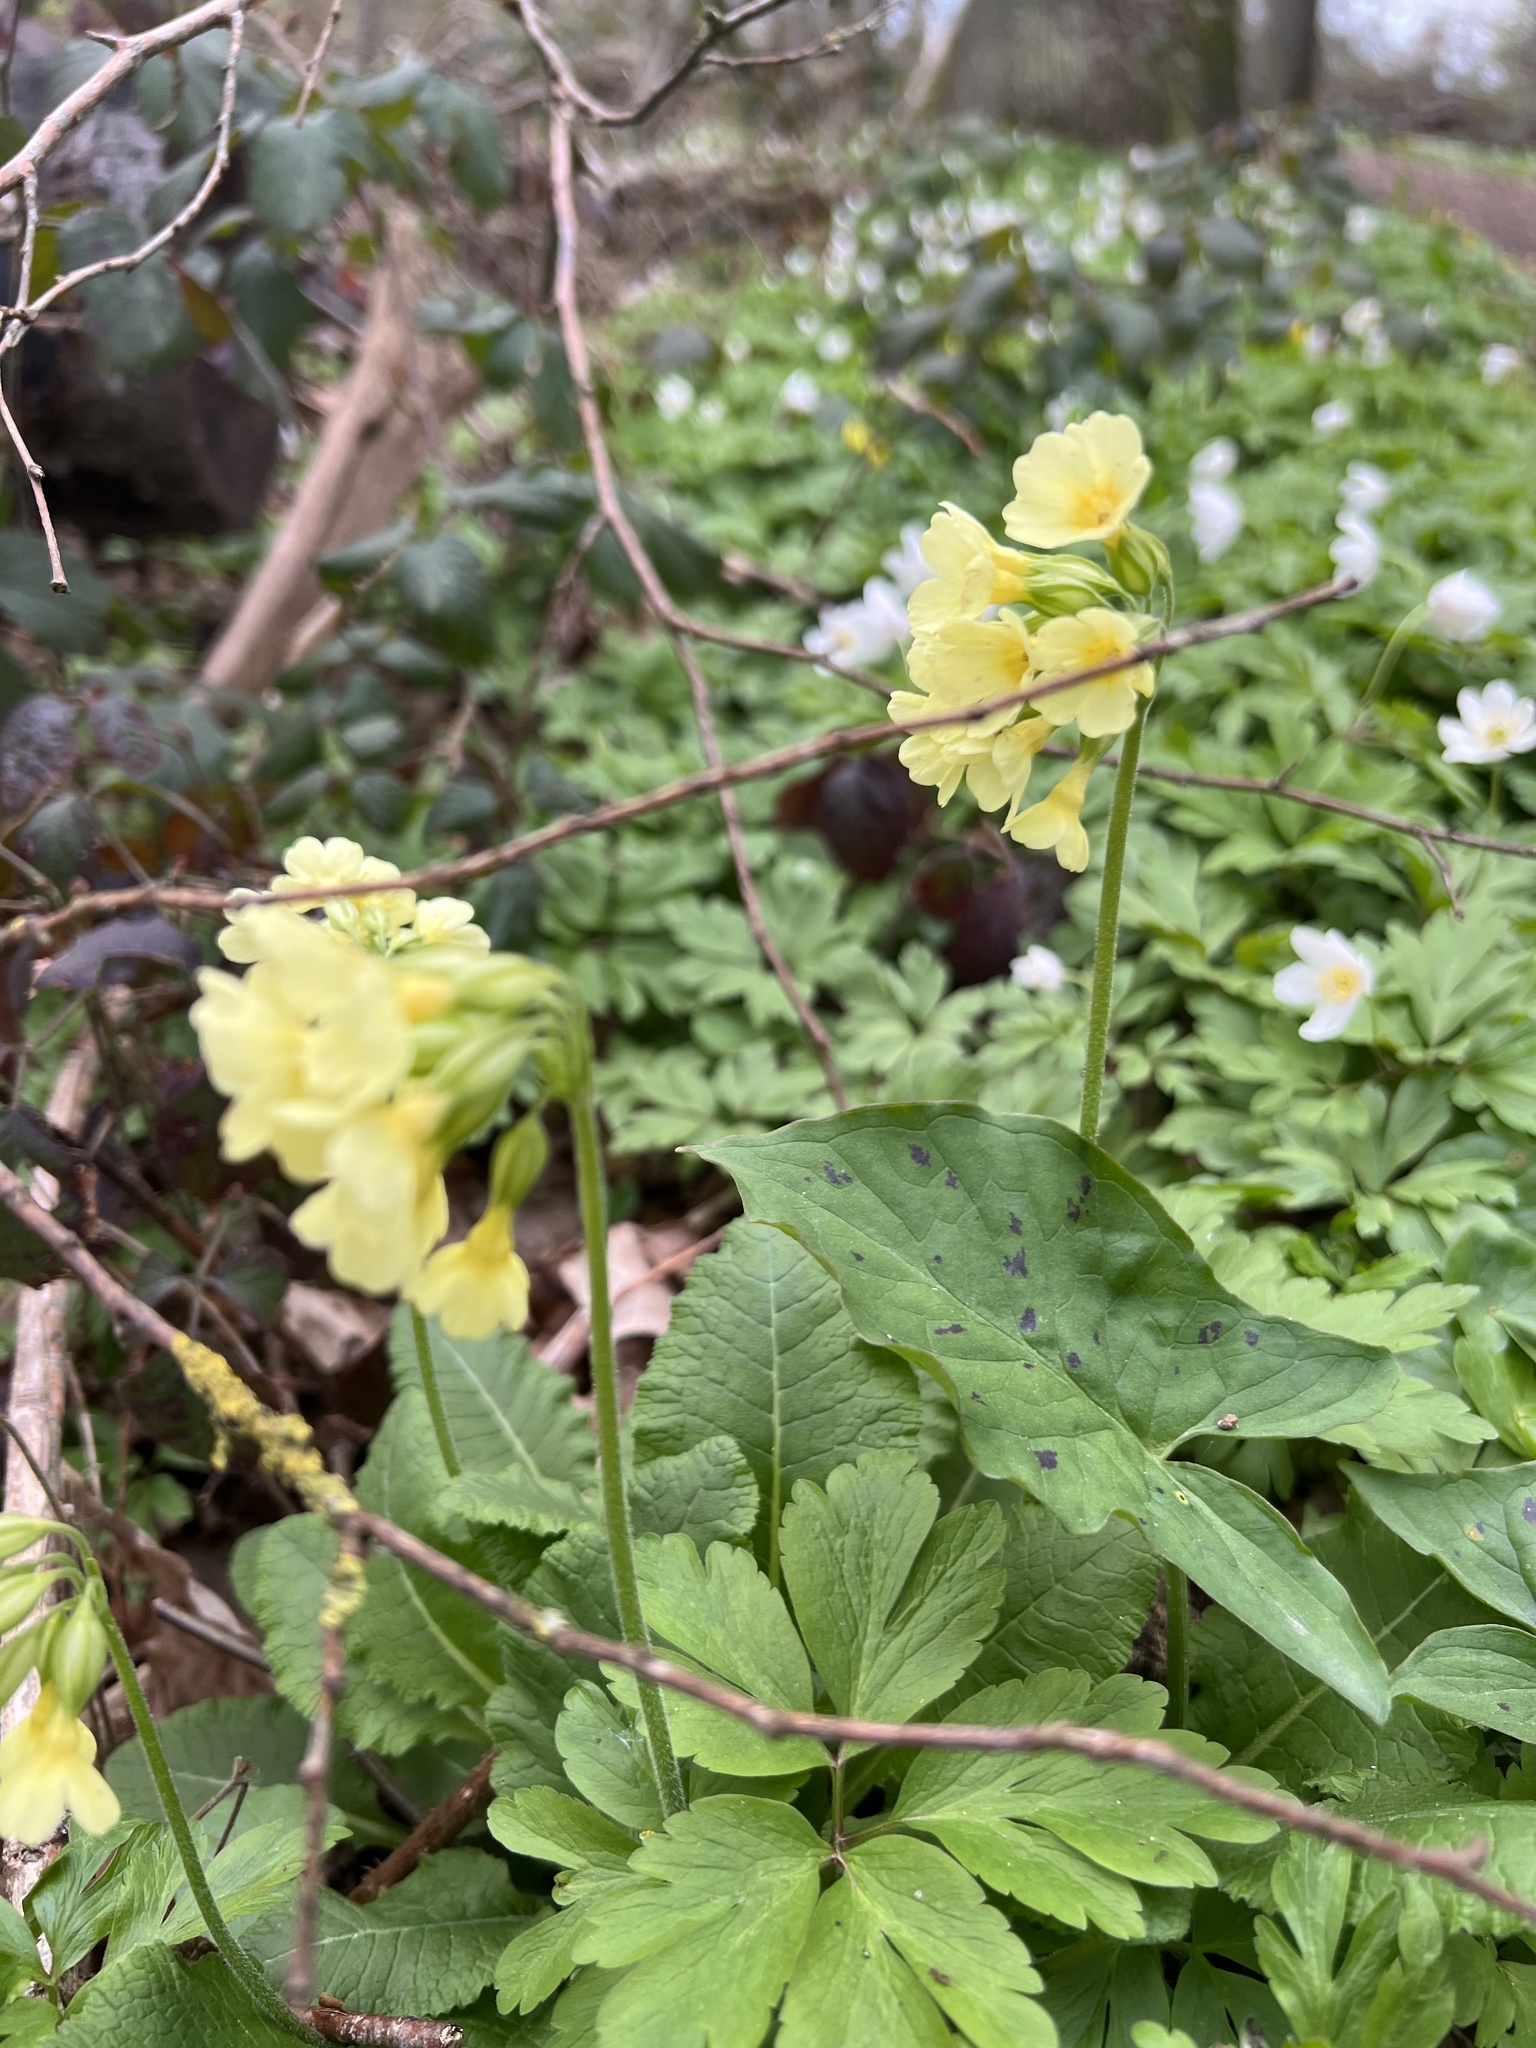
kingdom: Plantae
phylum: Tracheophyta
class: Magnoliopsida
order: Ericales
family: Primulaceae
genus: Primula
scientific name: Primula elatior
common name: Oxlip
